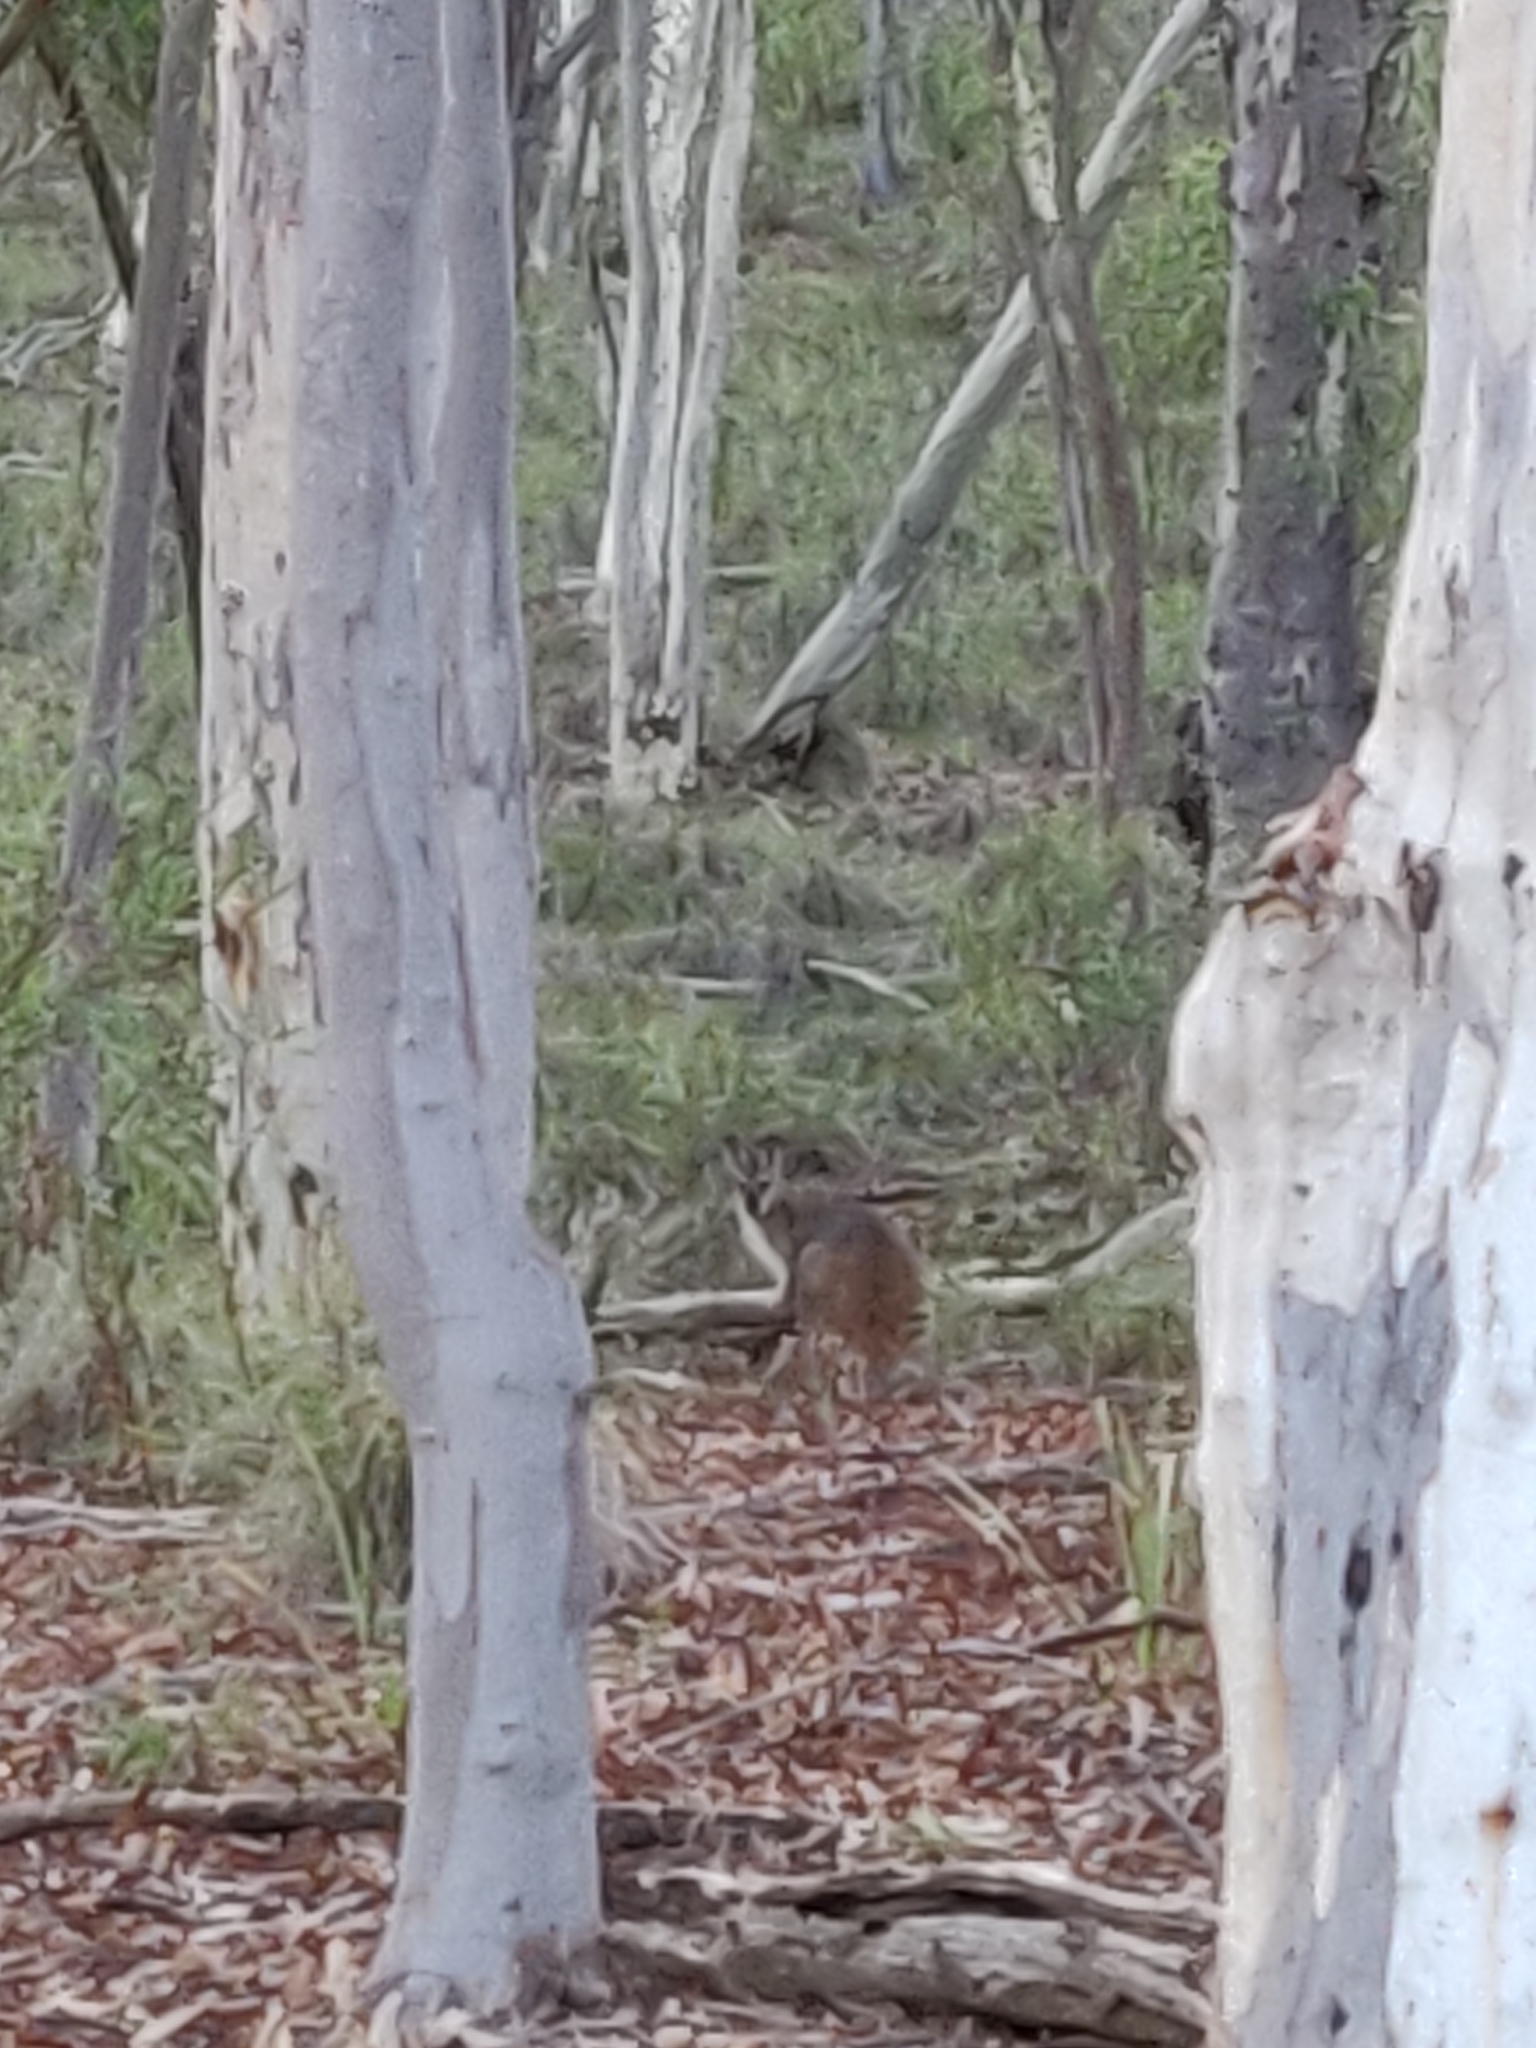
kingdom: Animalia
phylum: Chordata
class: Mammalia
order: Diprotodontia
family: Macropodidae
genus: Notamacropus
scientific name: Notamacropus rufogriseus
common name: Red-necked wallaby
